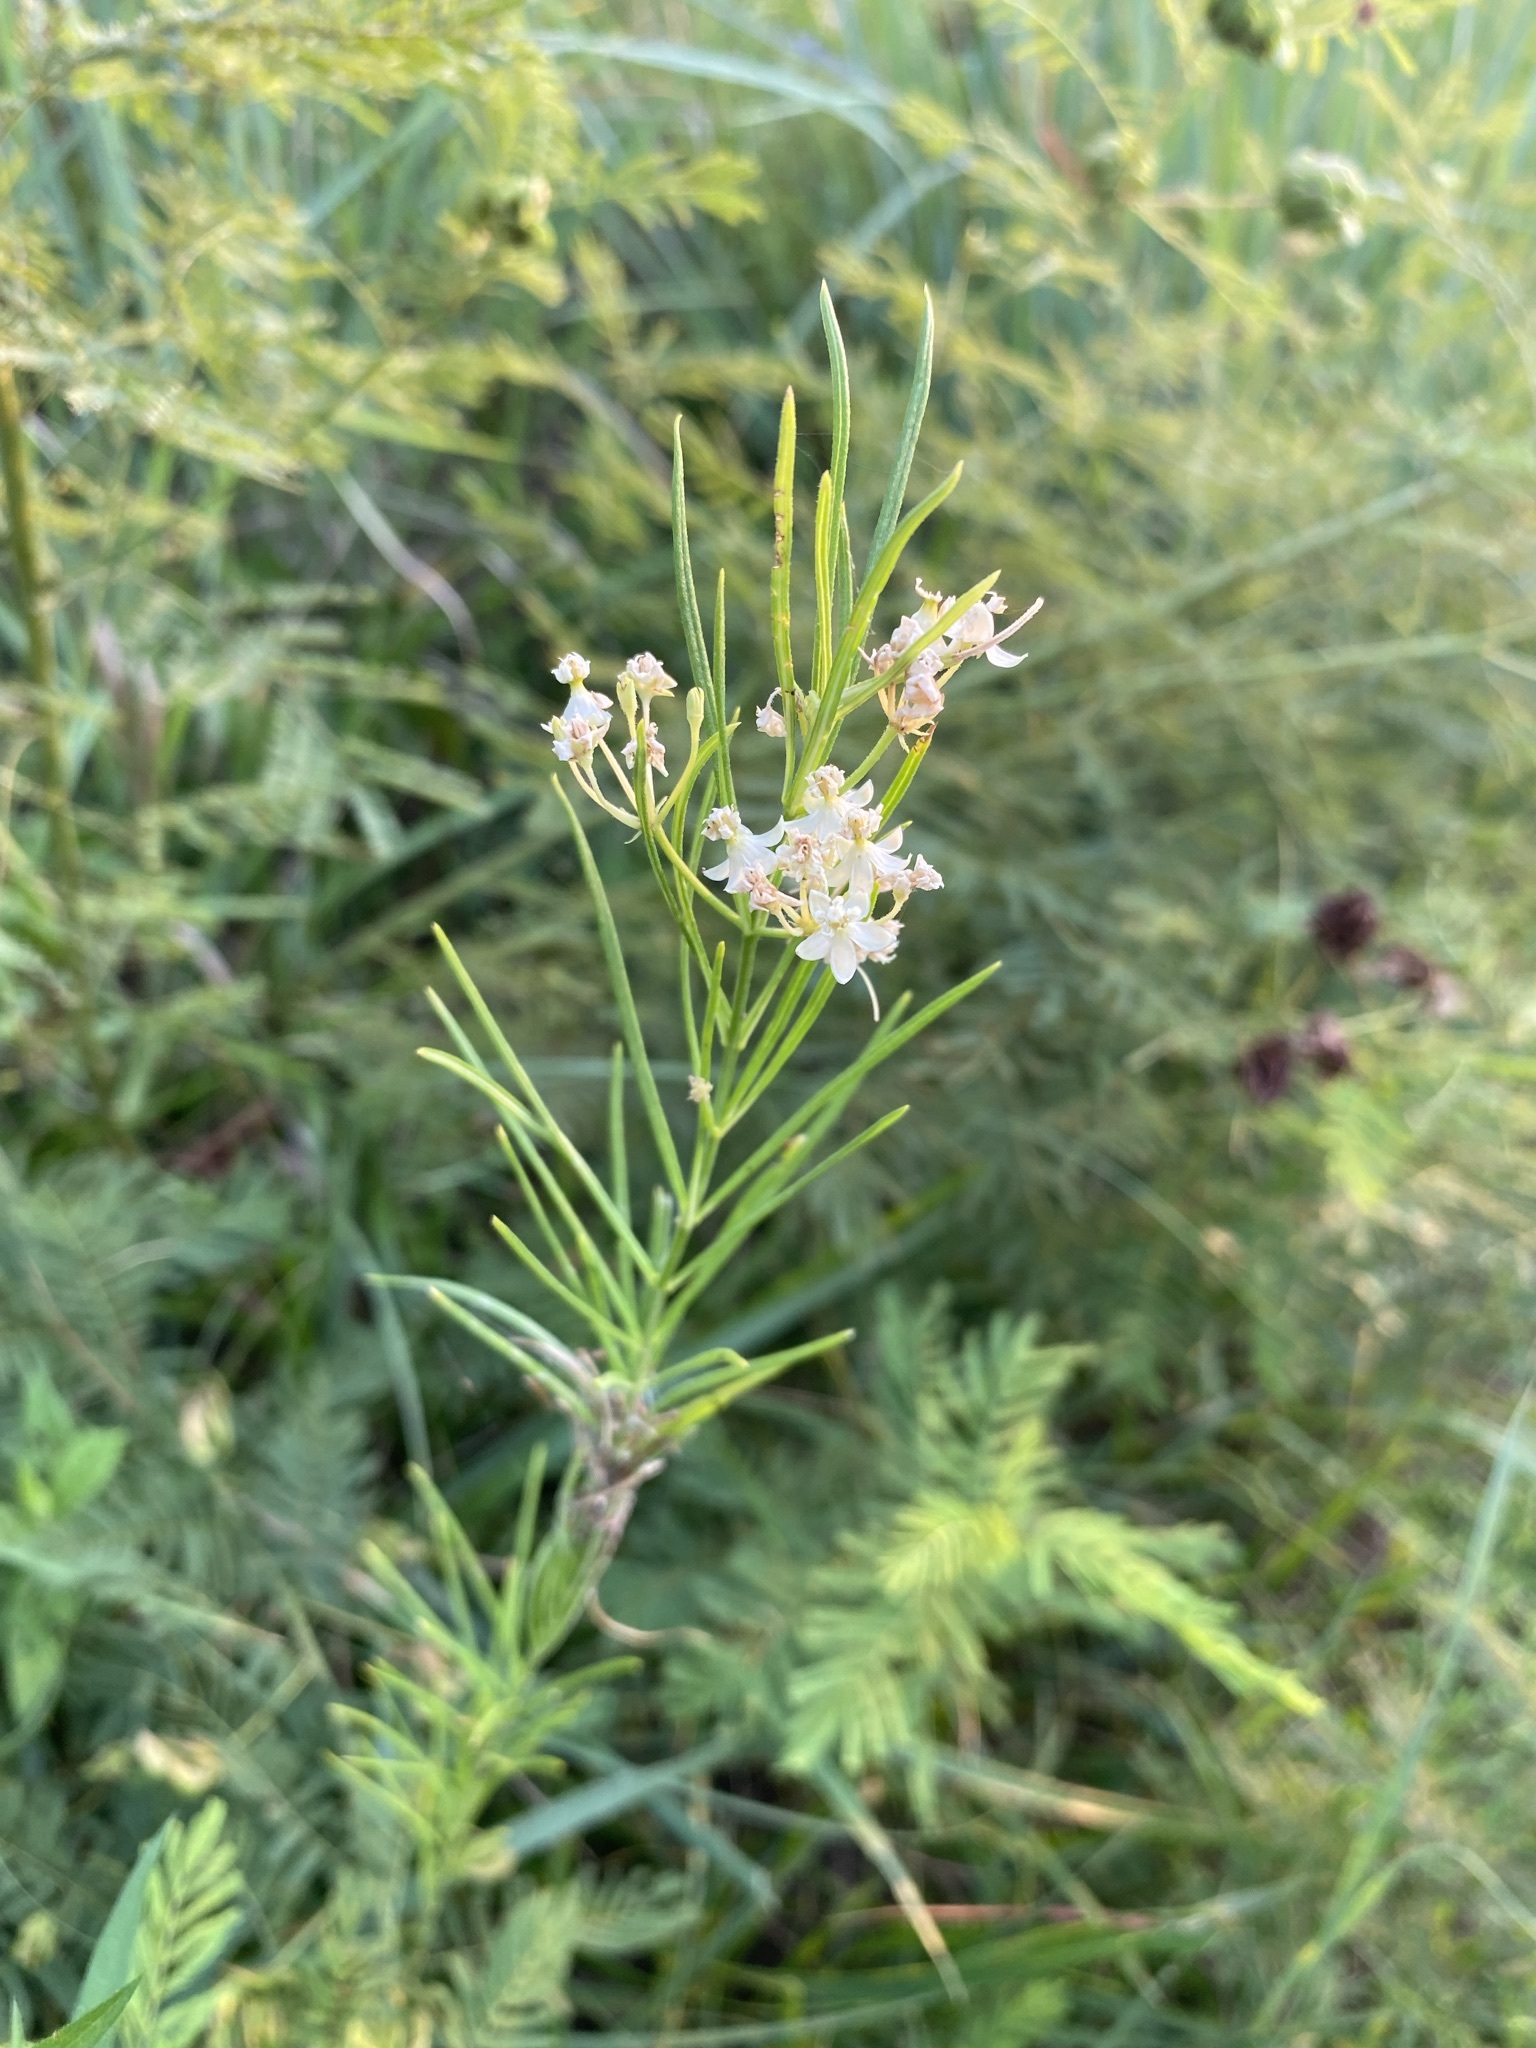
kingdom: Plantae
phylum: Tracheophyta
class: Magnoliopsida
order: Gentianales
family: Apocynaceae
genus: Asclepias
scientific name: Asclepias verticillata
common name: Eastern whorled milkweed
